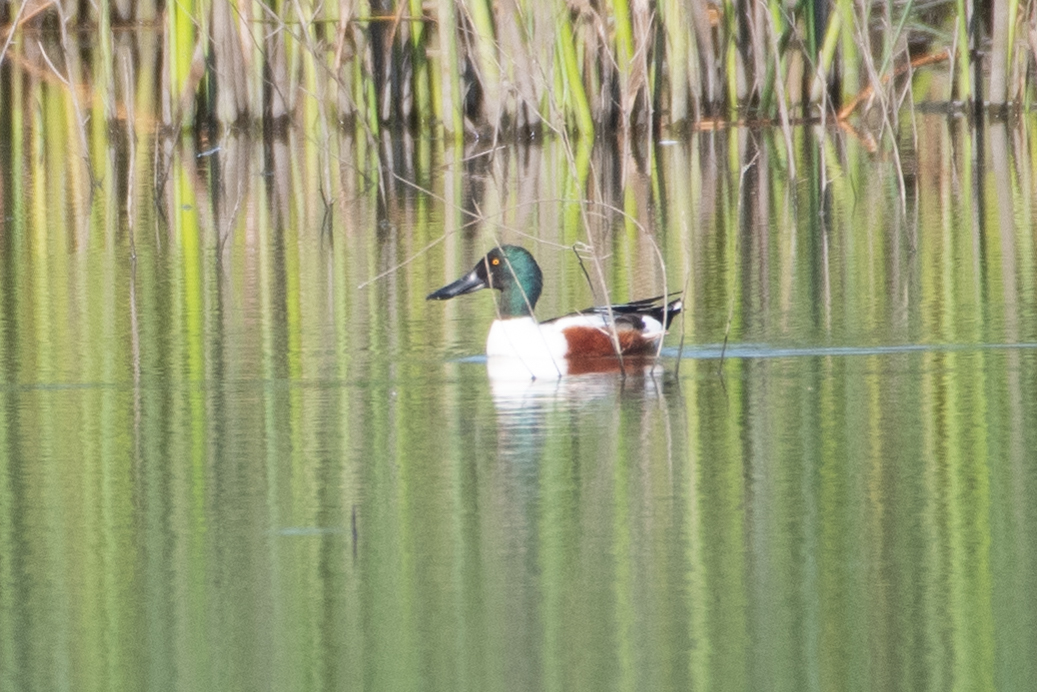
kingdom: Animalia
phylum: Chordata
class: Aves
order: Anseriformes
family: Anatidae
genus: Spatula
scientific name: Spatula clypeata
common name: Northern shoveler
